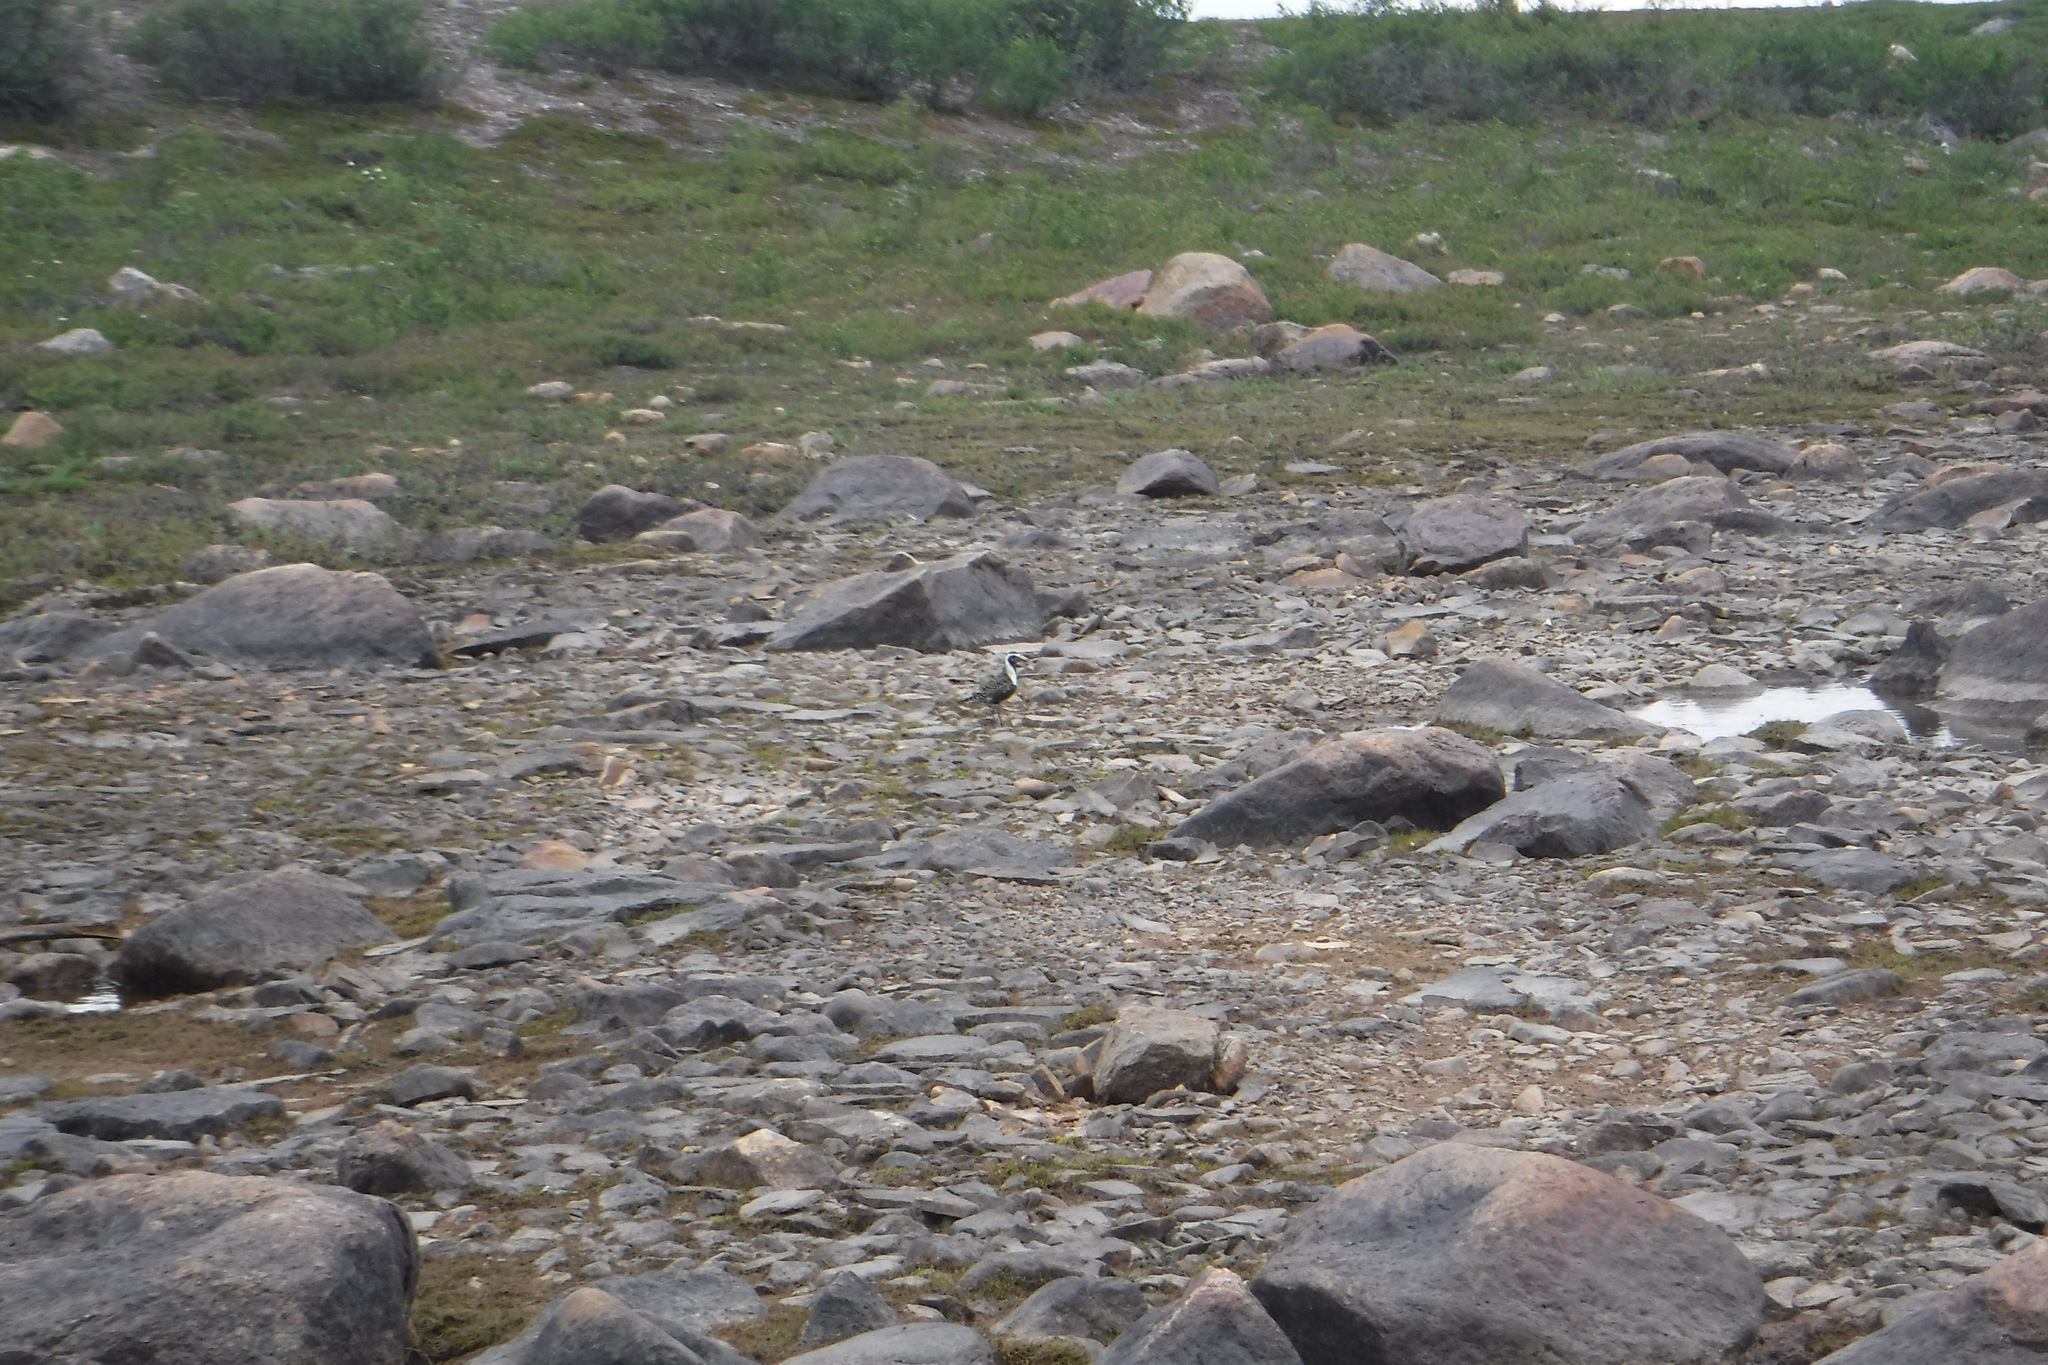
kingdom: Animalia
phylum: Chordata
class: Aves
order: Charadriiformes
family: Charadriidae
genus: Pluvialis
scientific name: Pluvialis dominica
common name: American golden plover
